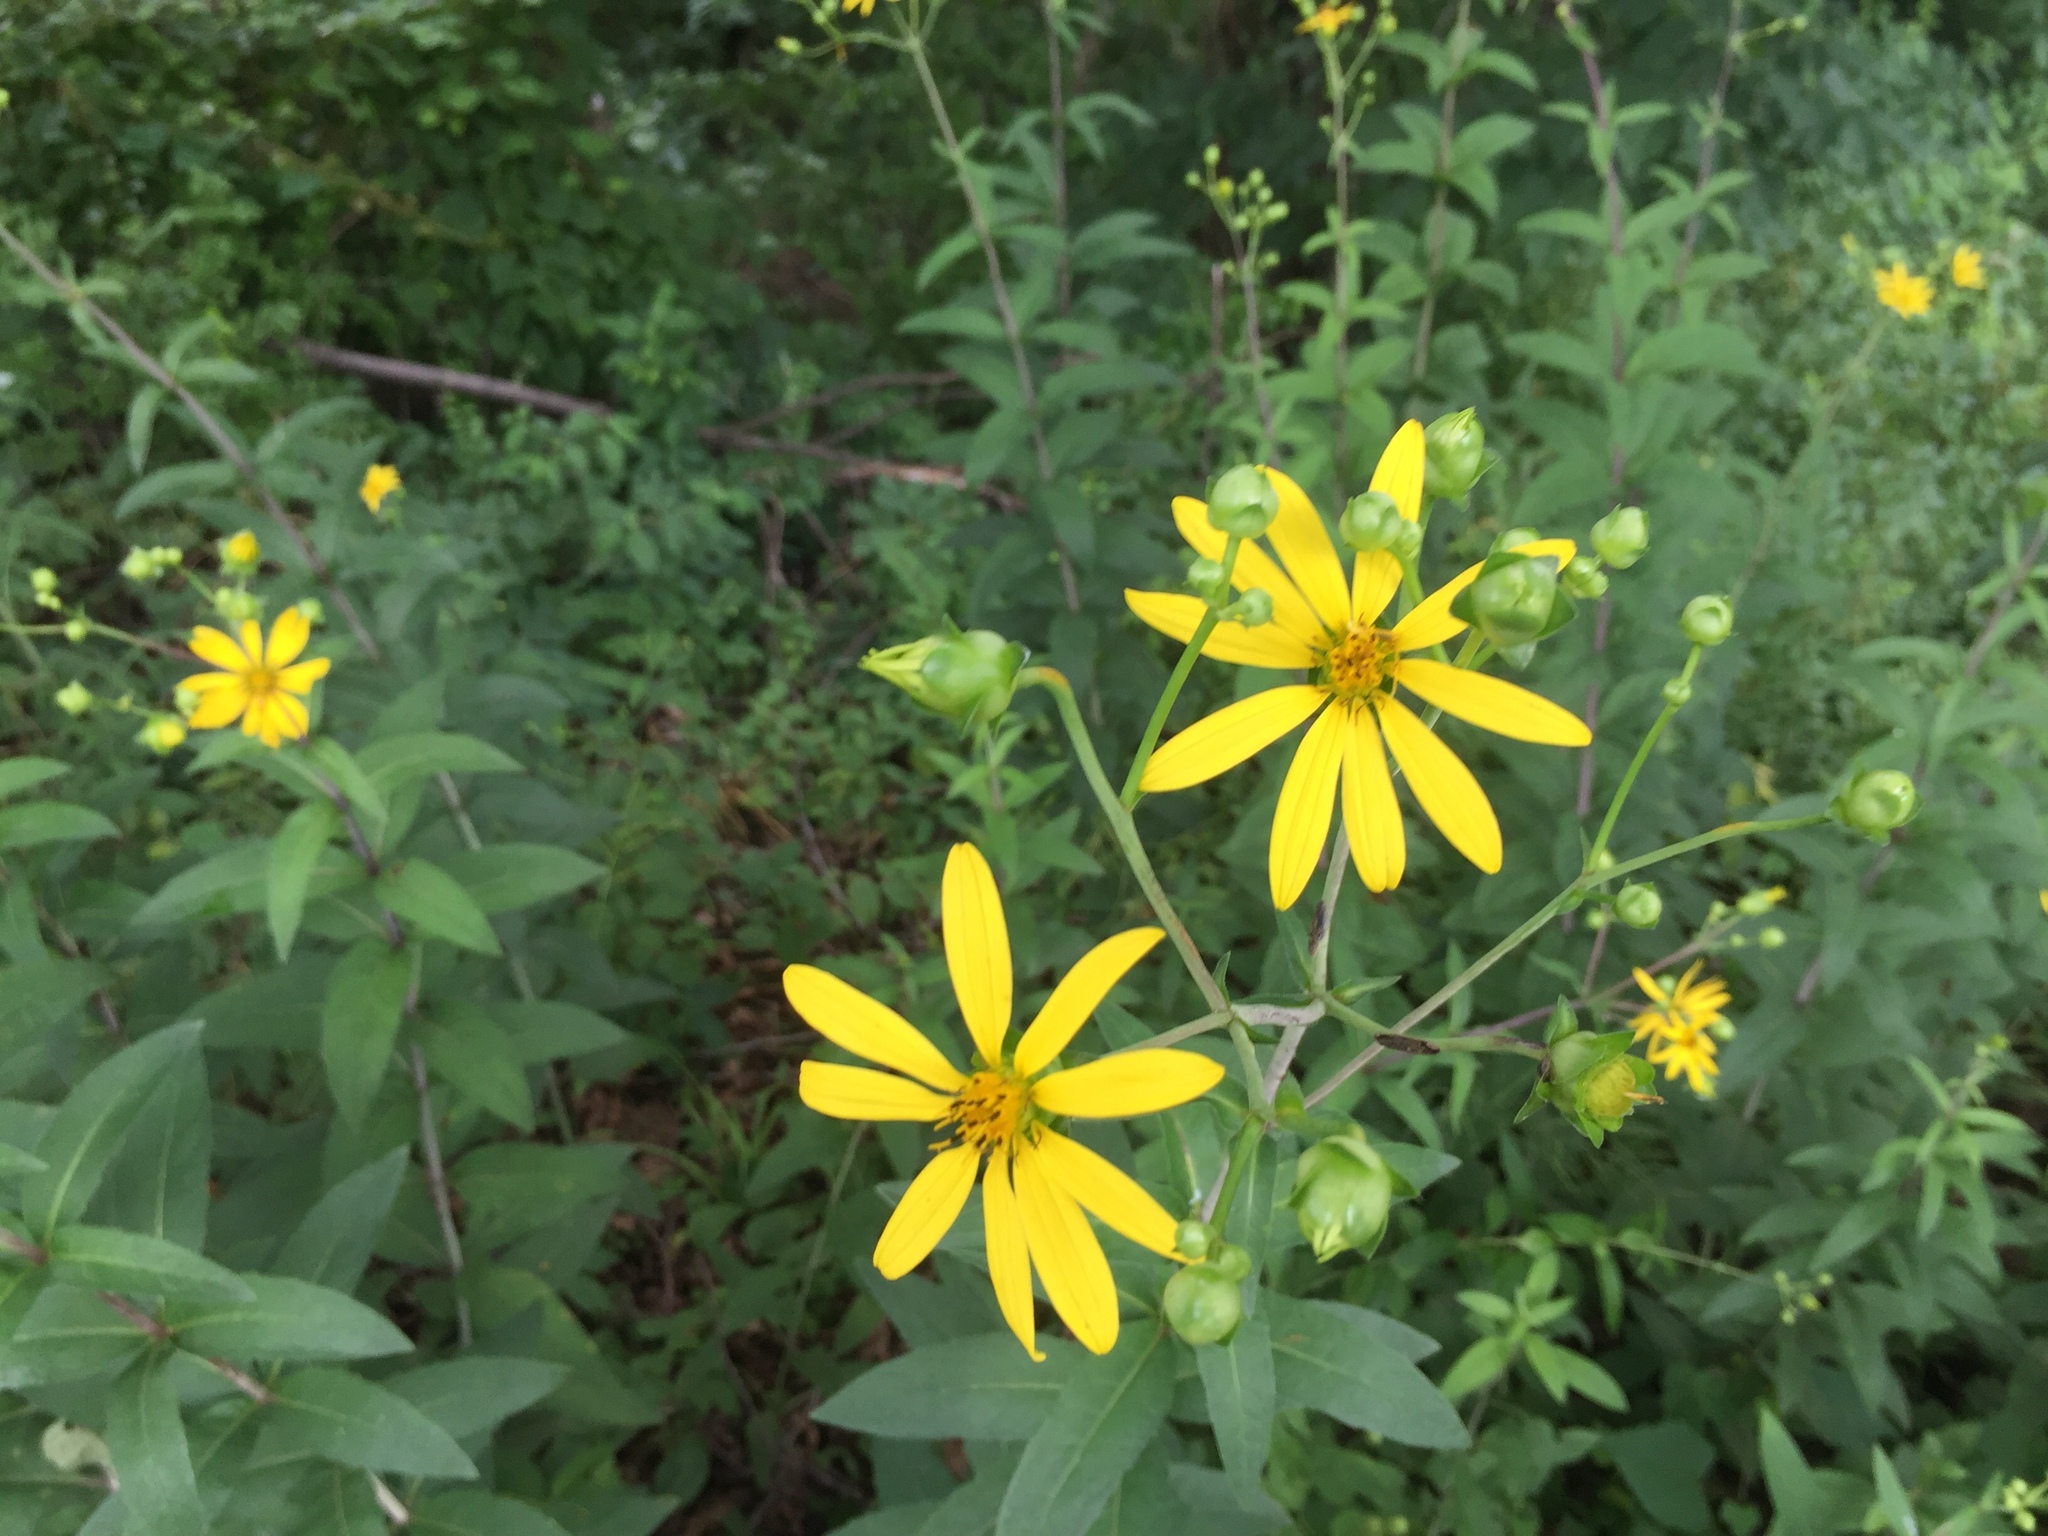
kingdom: Plantae
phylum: Tracheophyta
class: Magnoliopsida
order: Asterales
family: Asteraceae
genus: Helianthus
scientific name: Helianthus divaricatus
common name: Divergent sunflower
